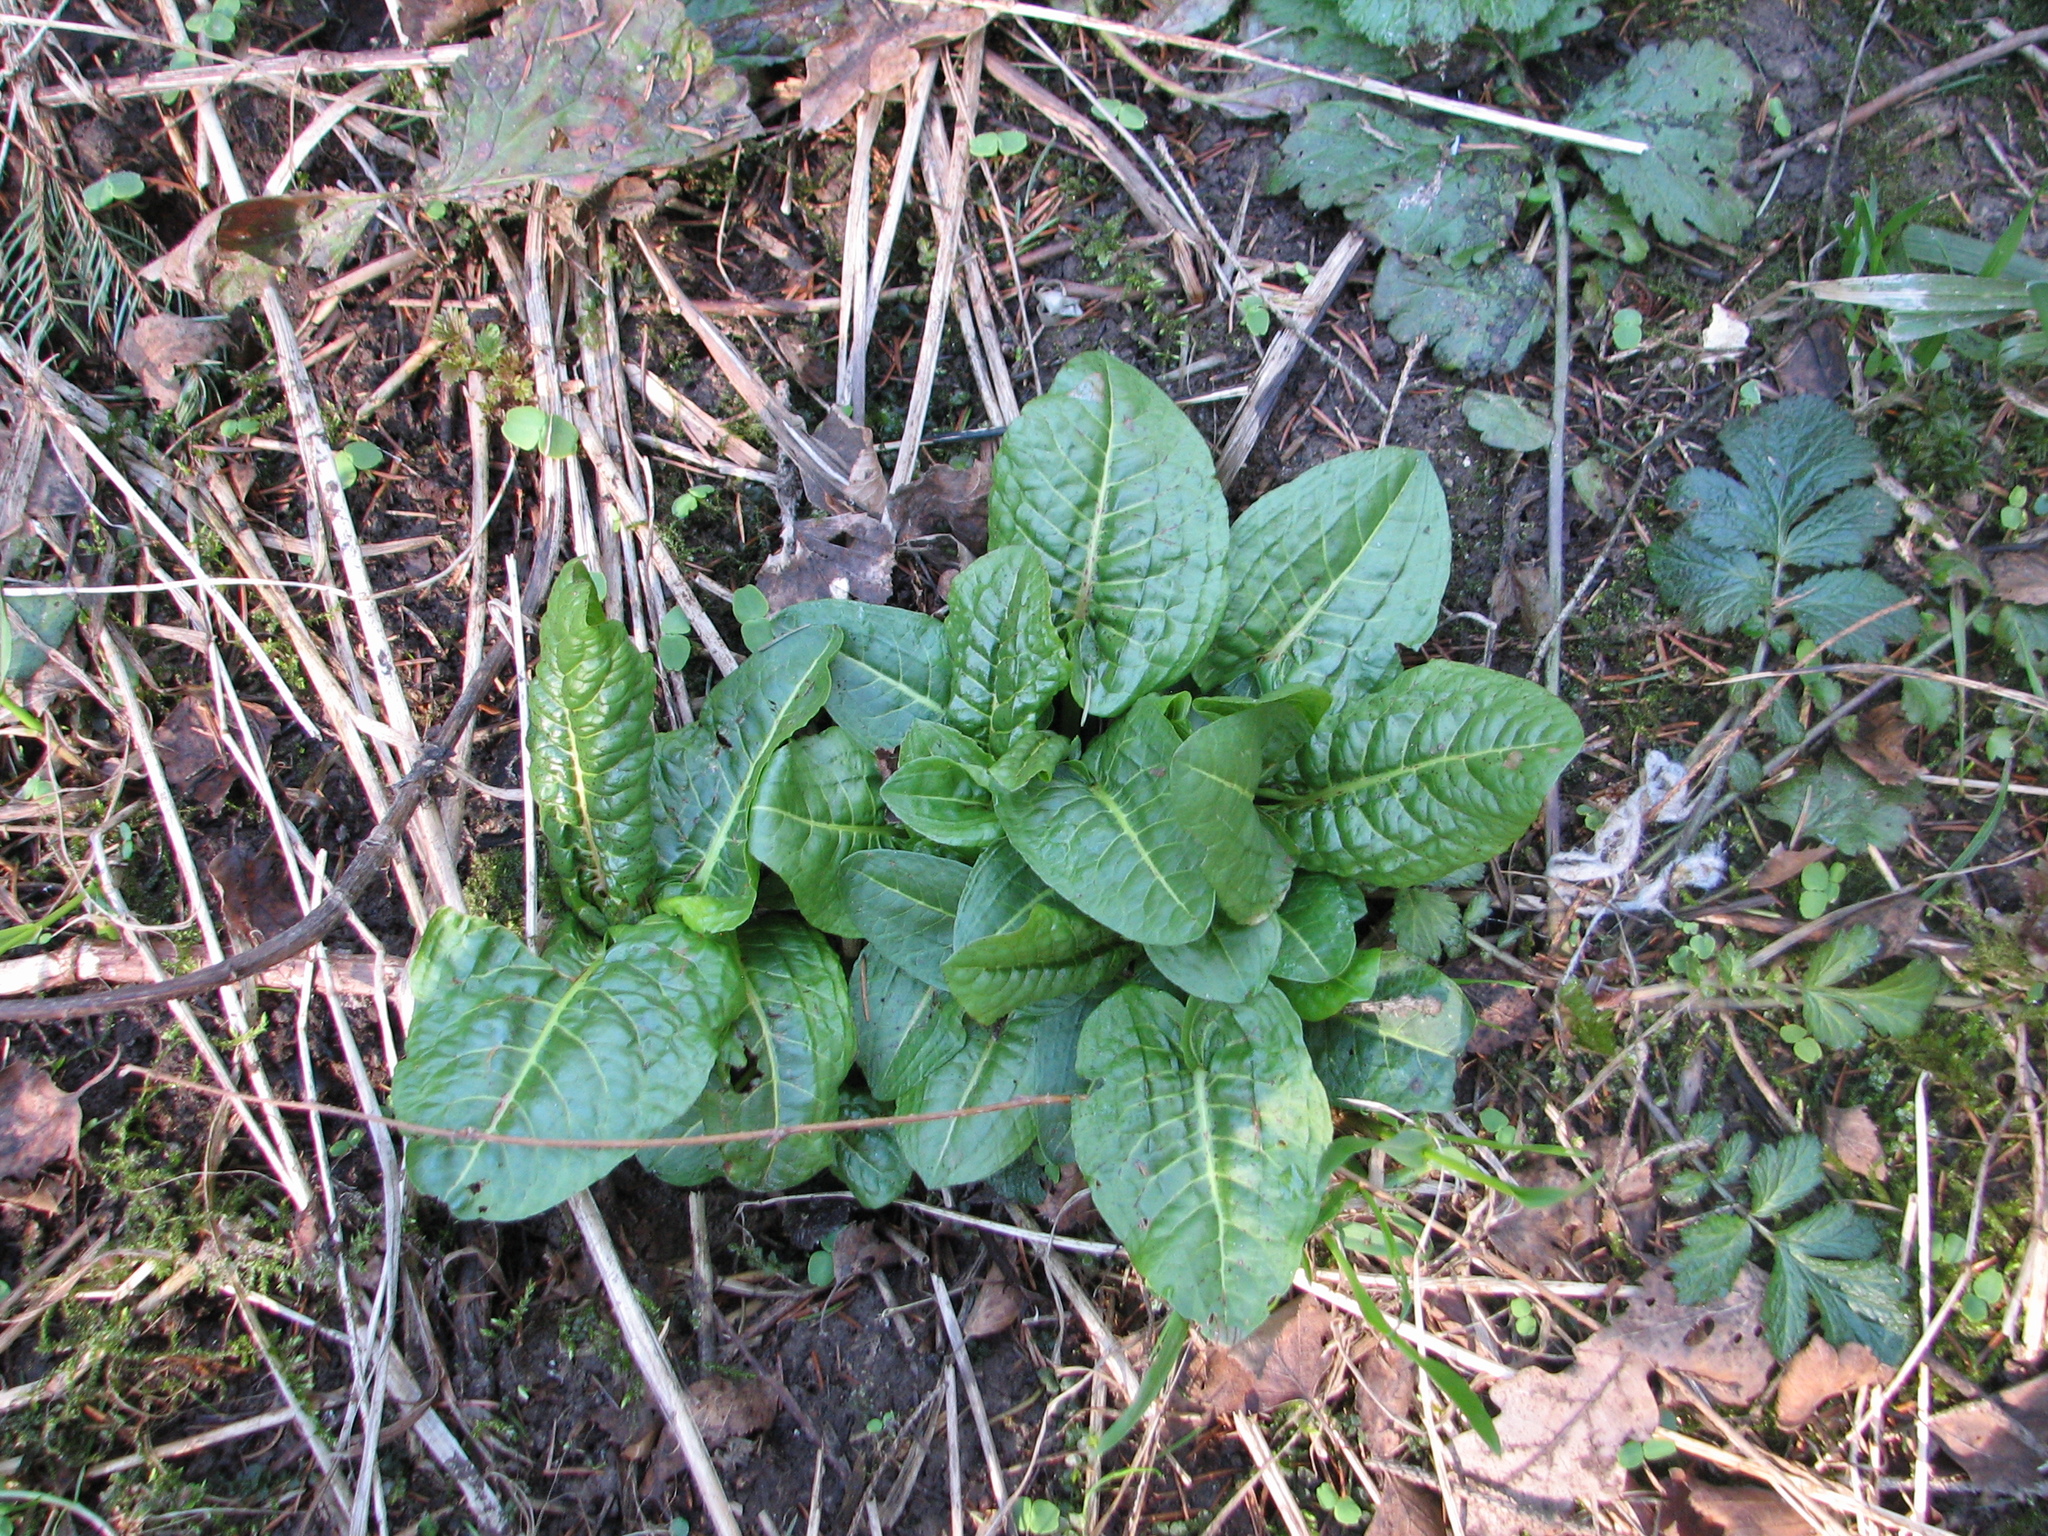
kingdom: Plantae
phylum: Tracheophyta
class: Magnoliopsida
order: Caryophyllales
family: Polygonaceae
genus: Rumex
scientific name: Rumex obtusifolius
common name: Bitter dock
